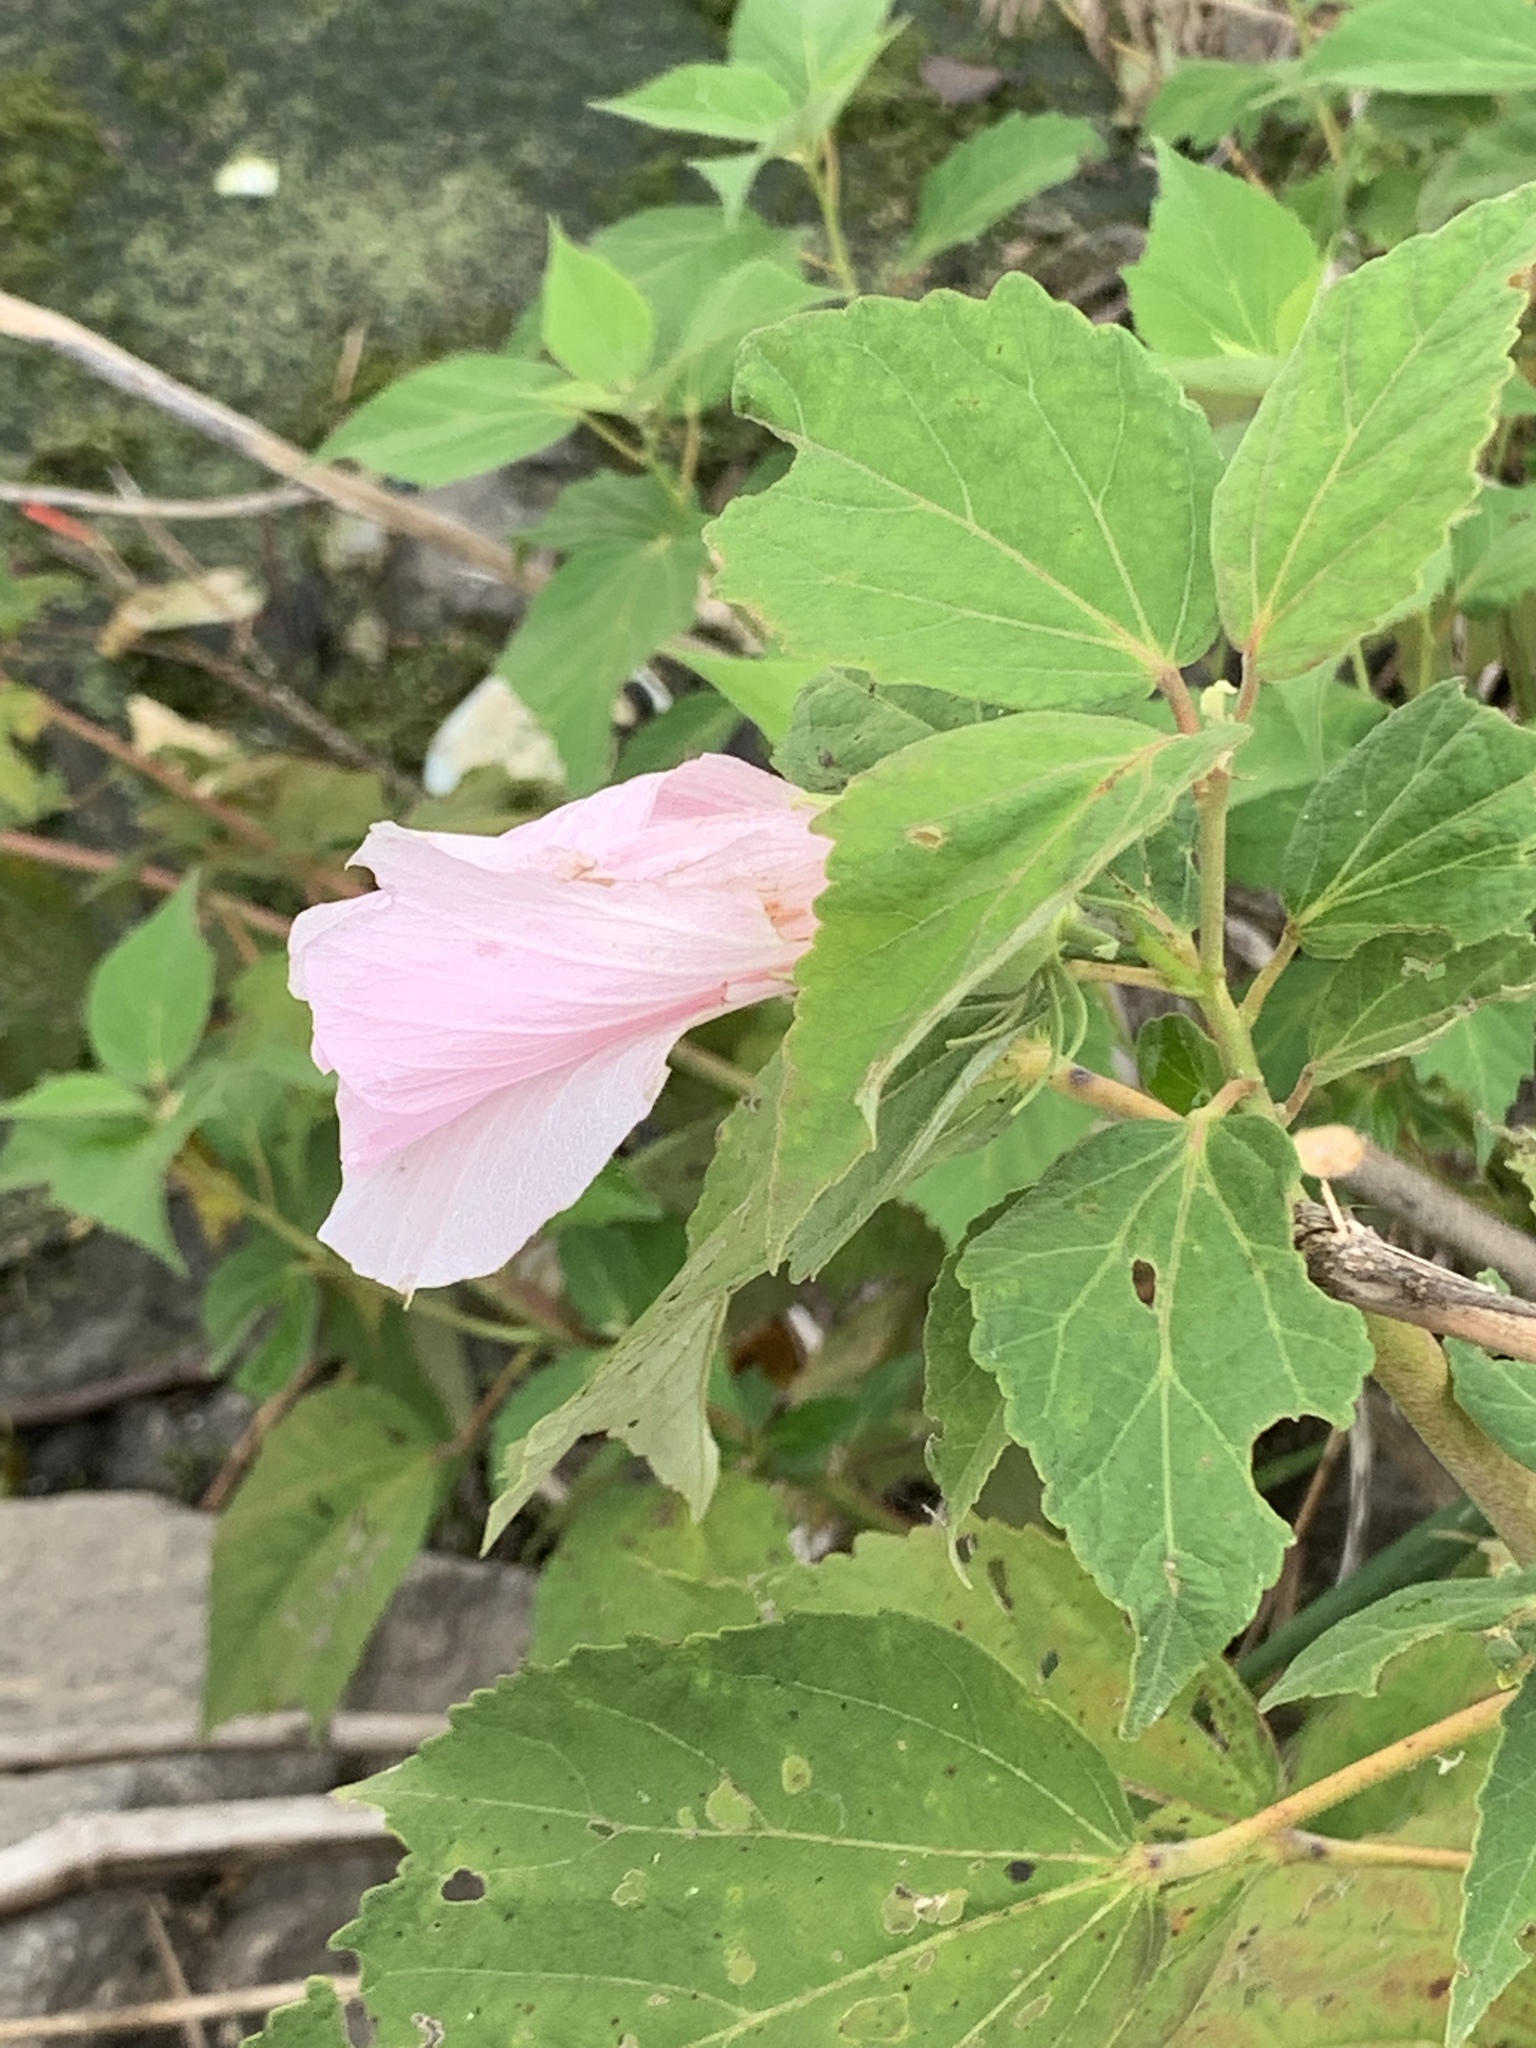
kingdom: Plantae
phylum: Tracheophyta
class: Magnoliopsida
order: Malvales
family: Malvaceae
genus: Hibiscus
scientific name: Hibiscus moscheutos
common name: Common rose-mallow
